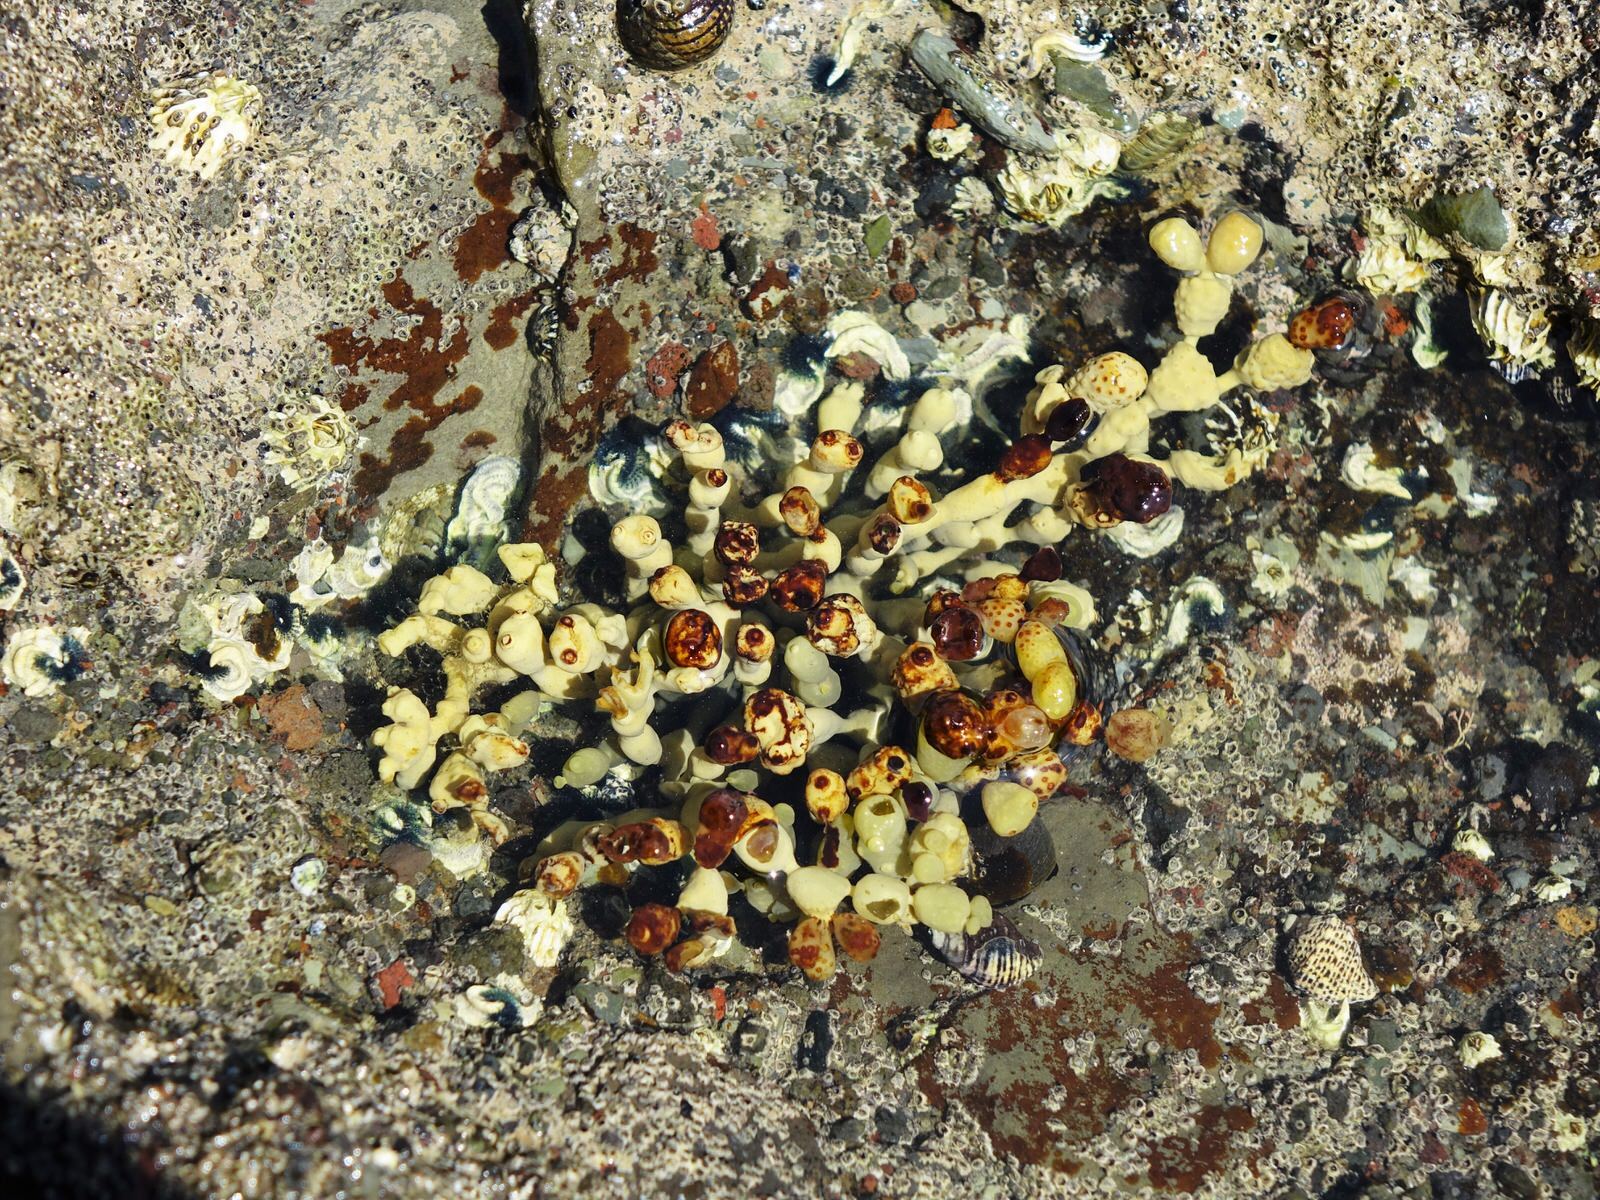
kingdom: Chromista
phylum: Ochrophyta
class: Phaeophyceae
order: Fucales
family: Hormosiraceae
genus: Hormosira
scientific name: Hormosira banksii
